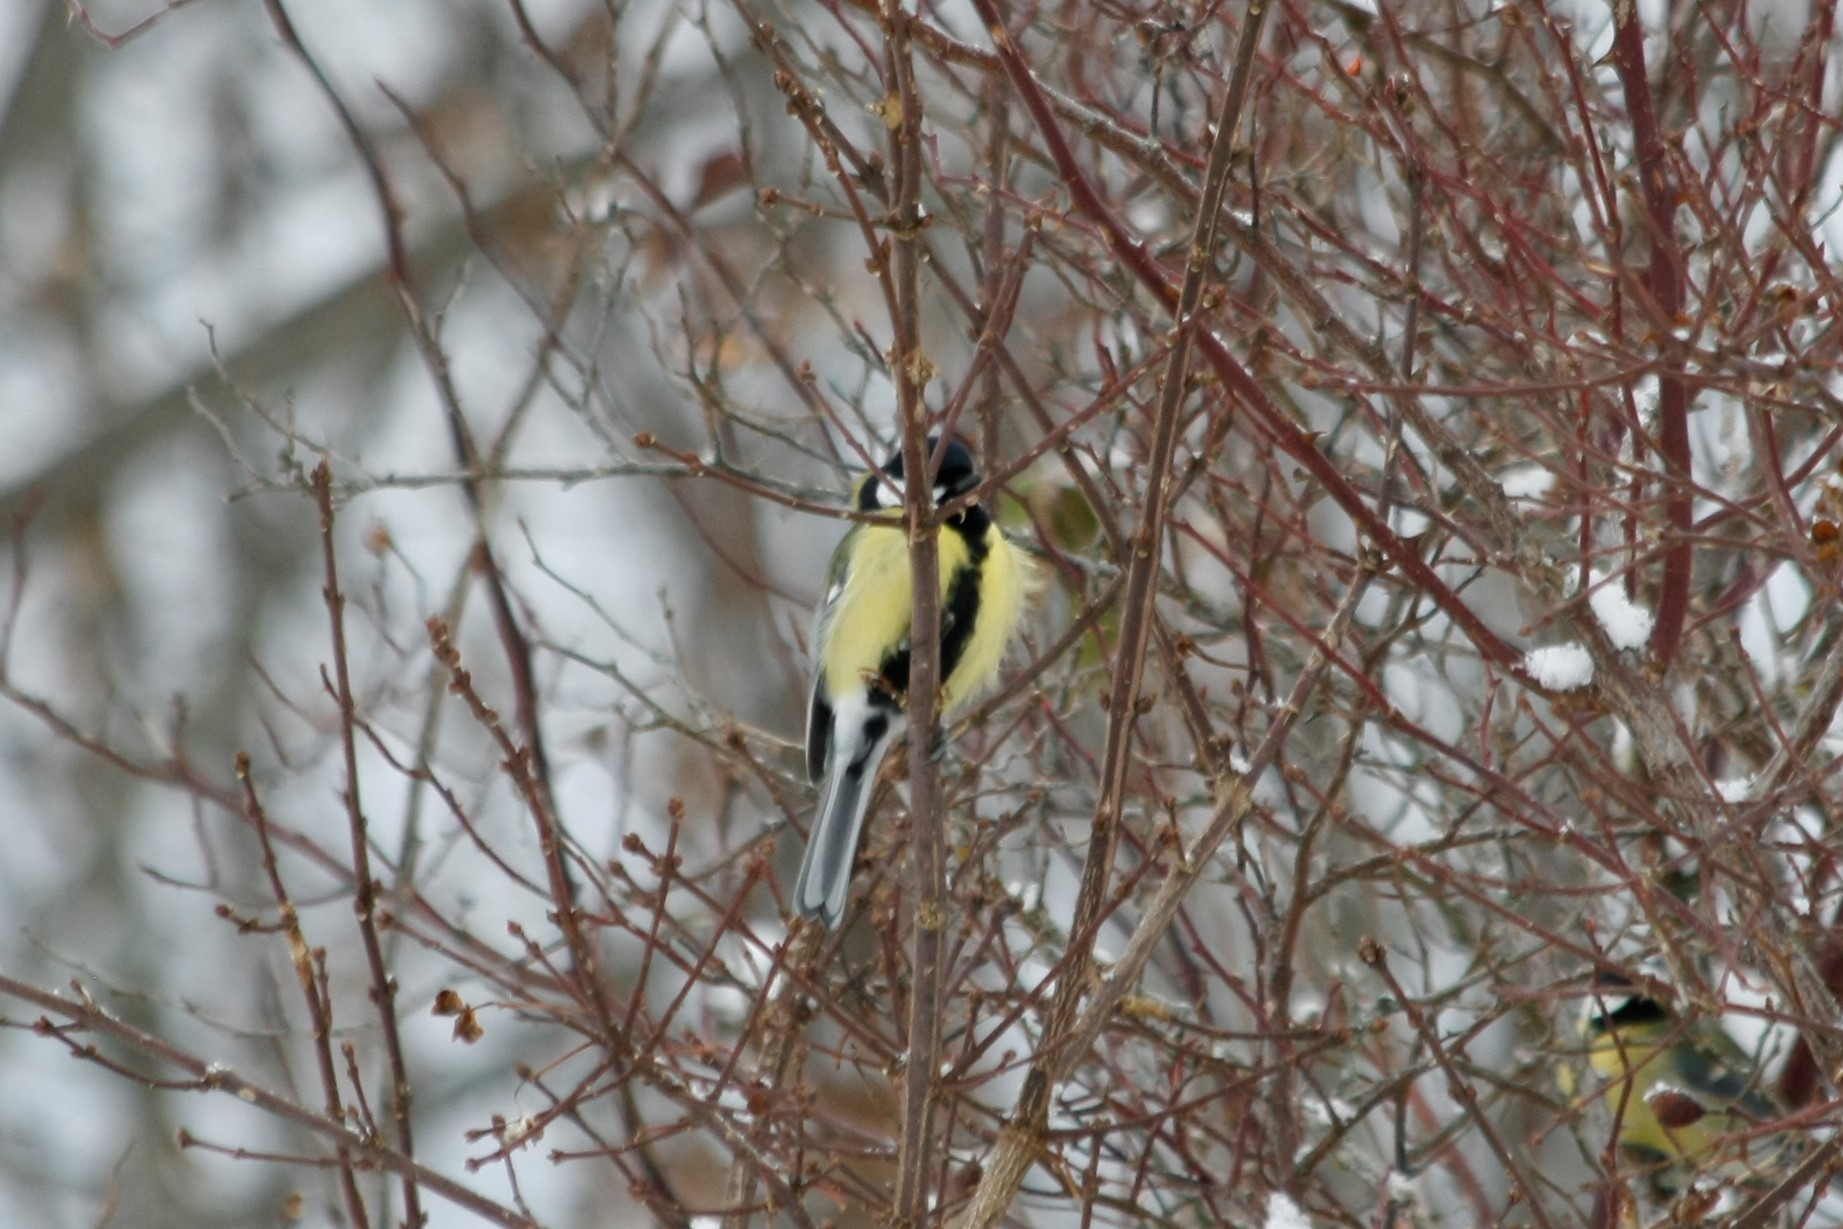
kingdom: Animalia
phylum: Chordata
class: Aves
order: Passeriformes
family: Paridae
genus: Parus
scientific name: Parus major
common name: Great tit
